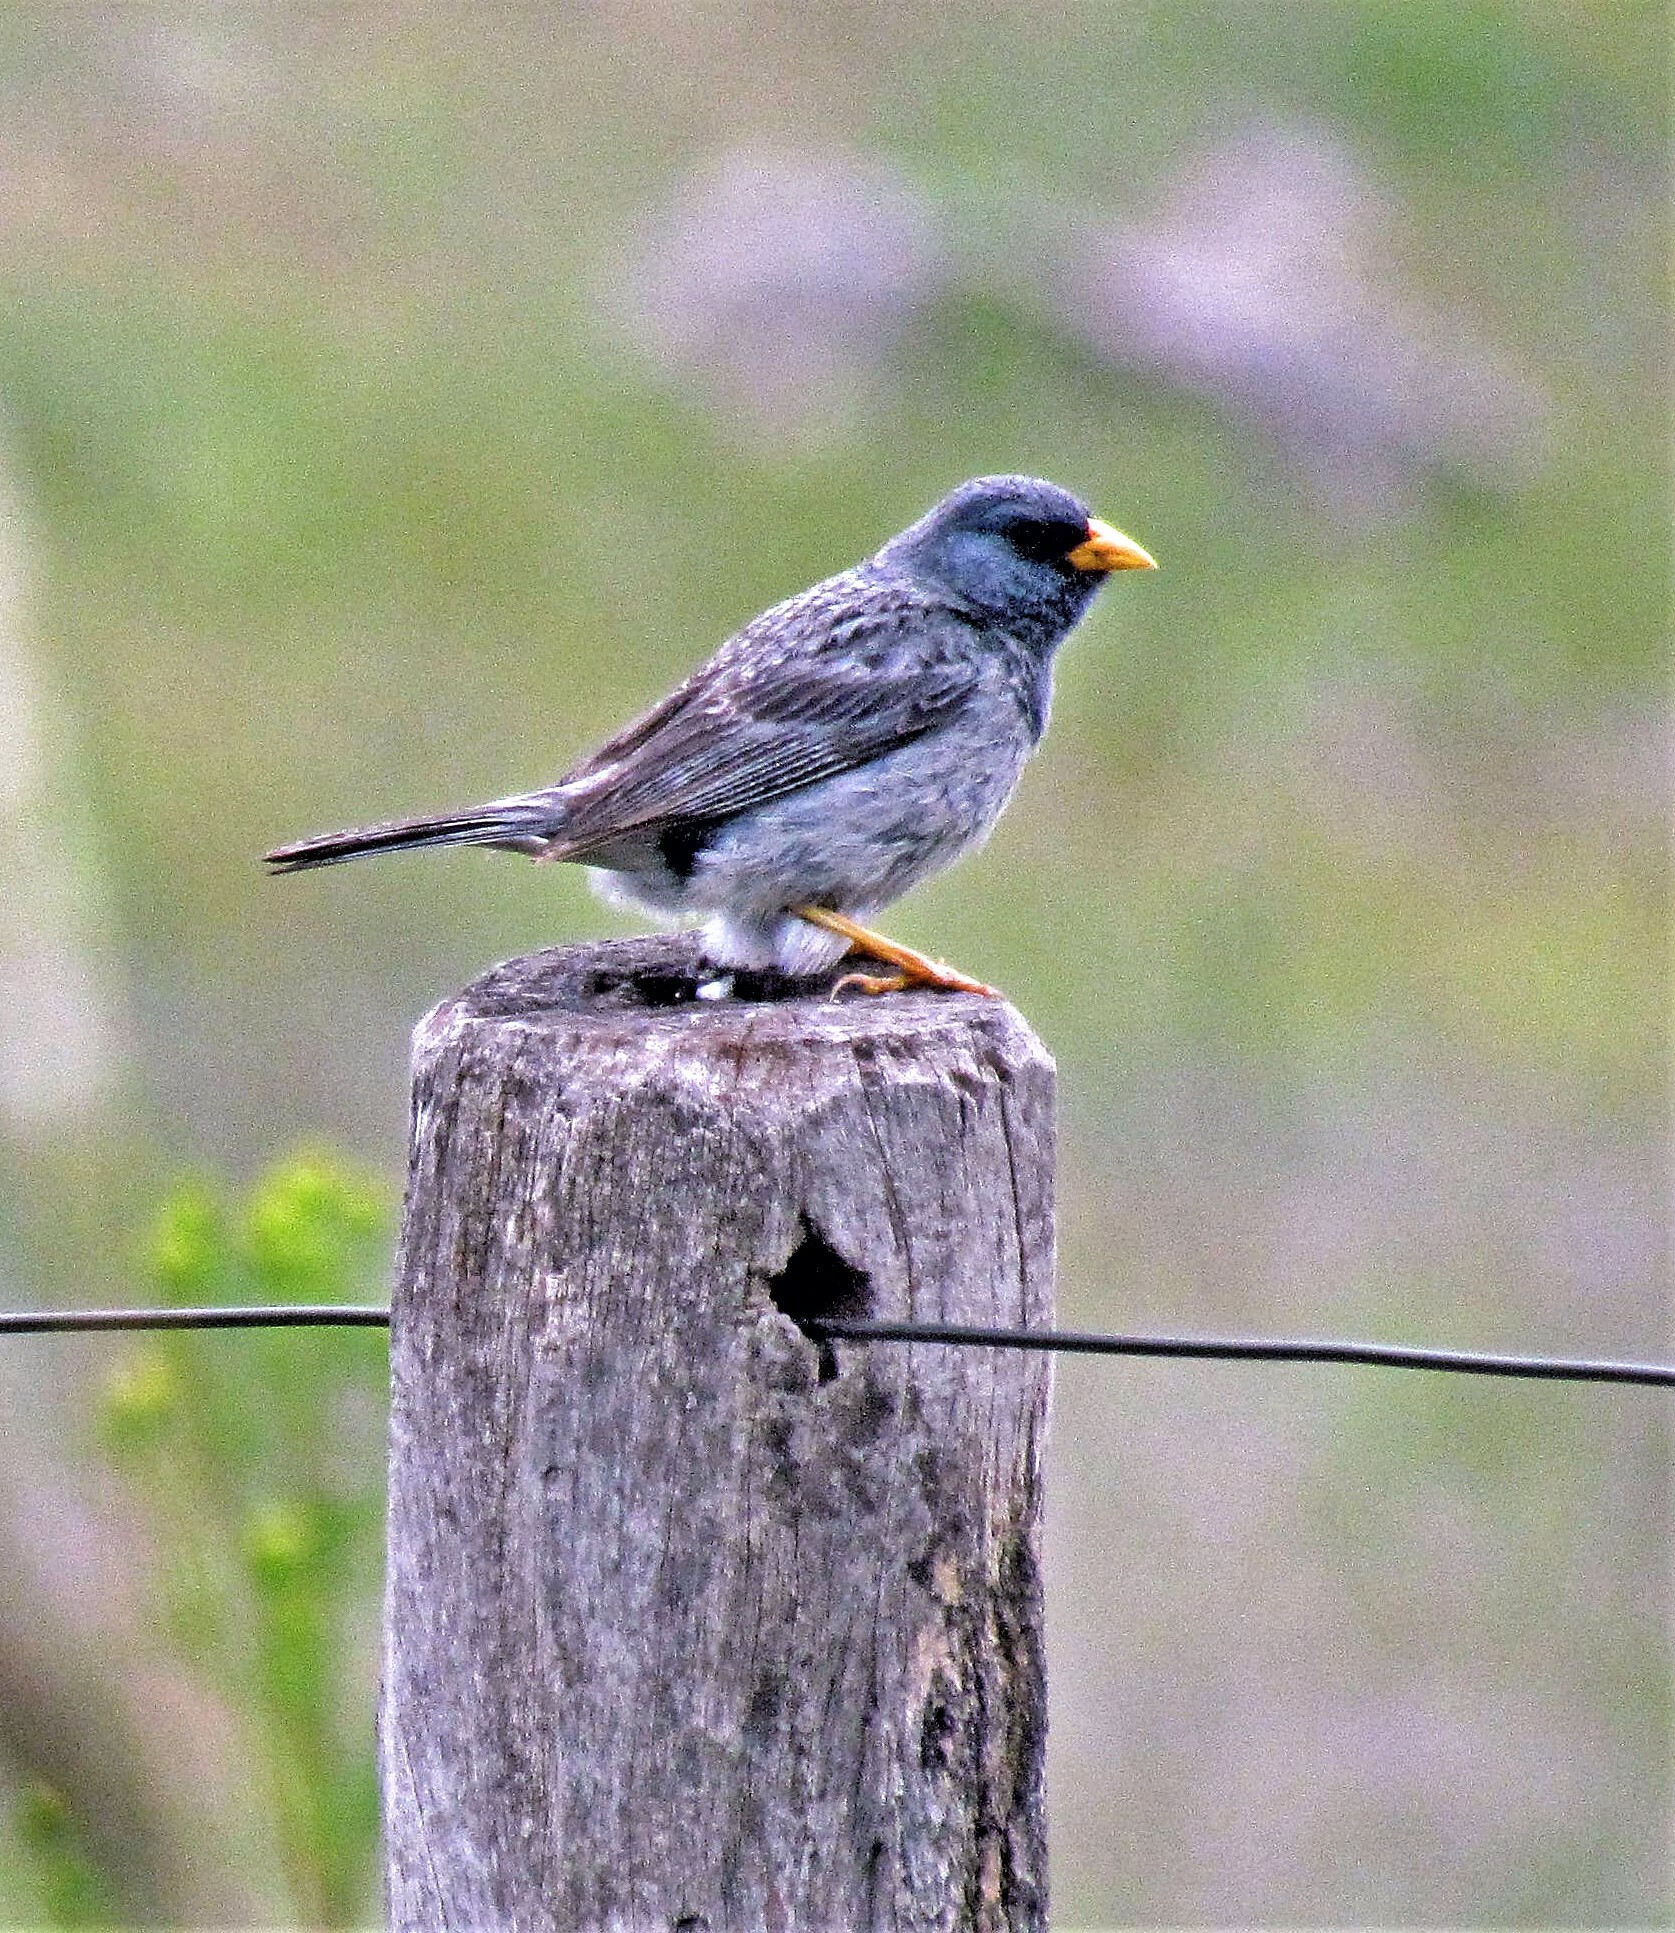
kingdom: Animalia
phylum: Chordata
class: Aves
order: Passeriformes
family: Thraupidae
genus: Porphyrospiza
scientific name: Porphyrospiza alaudina
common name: Band-tailed sierra finch
